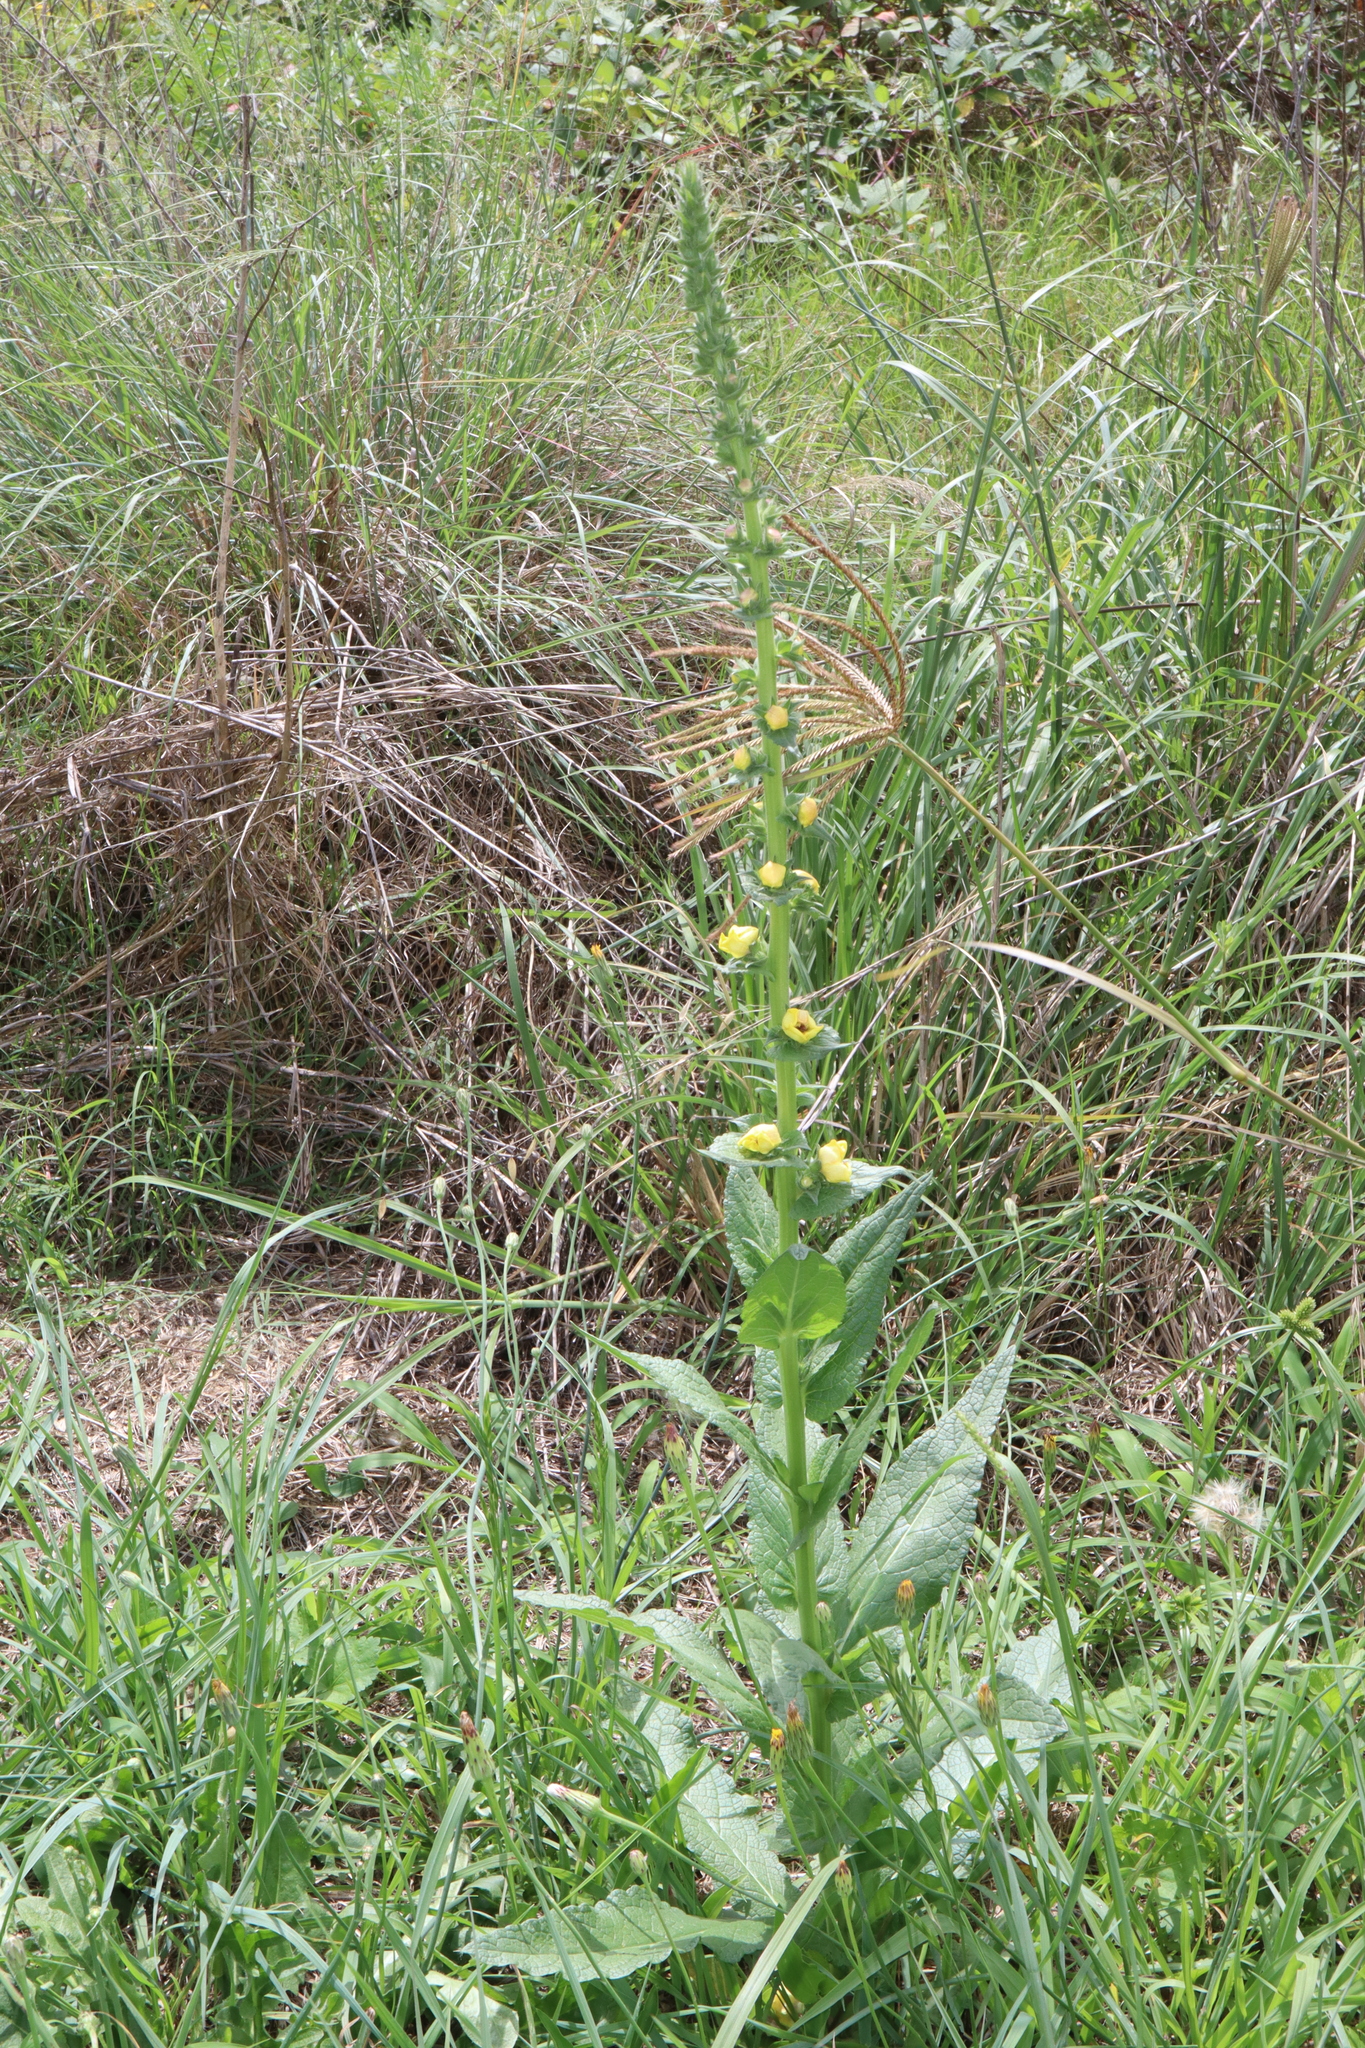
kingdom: Plantae
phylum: Tracheophyta
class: Magnoliopsida
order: Lamiales
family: Scrophulariaceae
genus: Verbascum
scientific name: Verbascum virgatum
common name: Twiggy mullein
